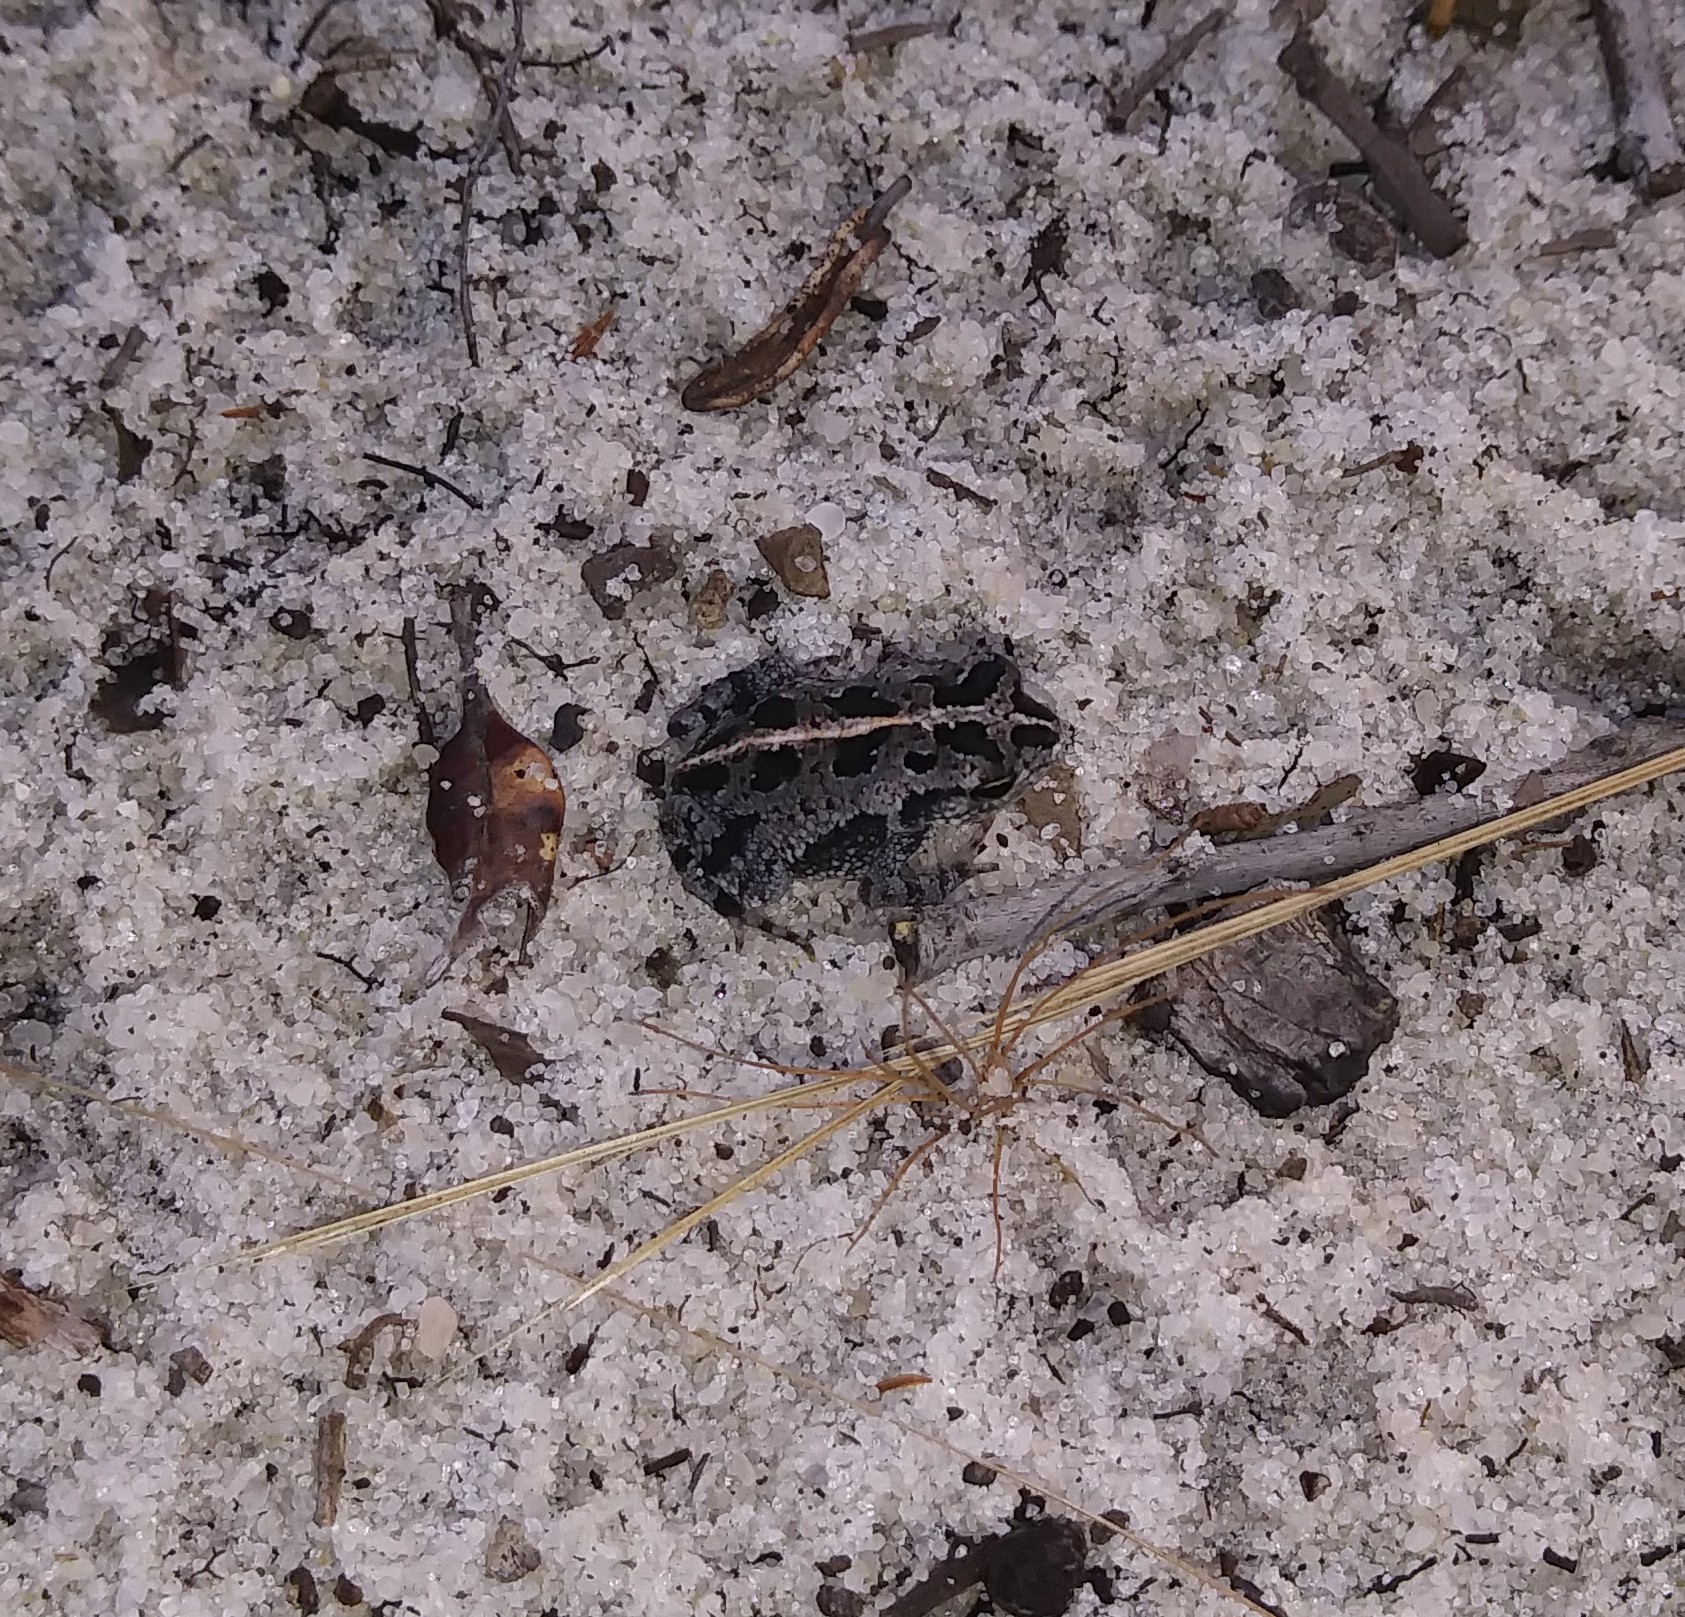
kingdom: Animalia
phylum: Chordata
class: Amphibia
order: Anura
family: Bufonidae
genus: Anaxyrus
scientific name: Anaxyrus quercicus
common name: Oak toad
